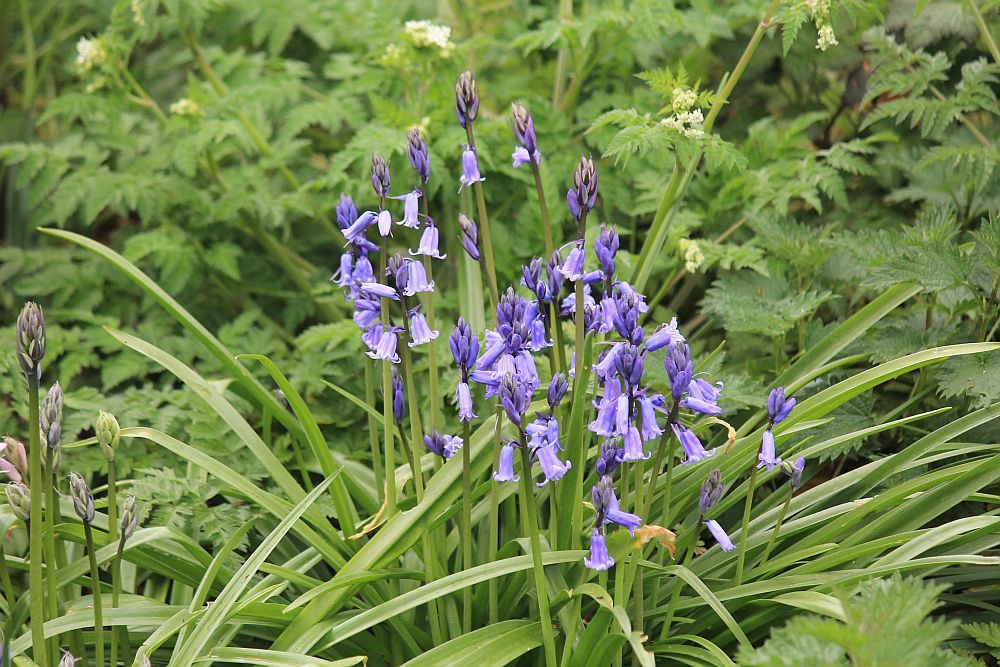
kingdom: Plantae
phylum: Tracheophyta
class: Liliopsida
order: Asparagales
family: Asparagaceae
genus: Hyacinthoides
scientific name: Hyacinthoides non-scripta
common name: Bluebell
